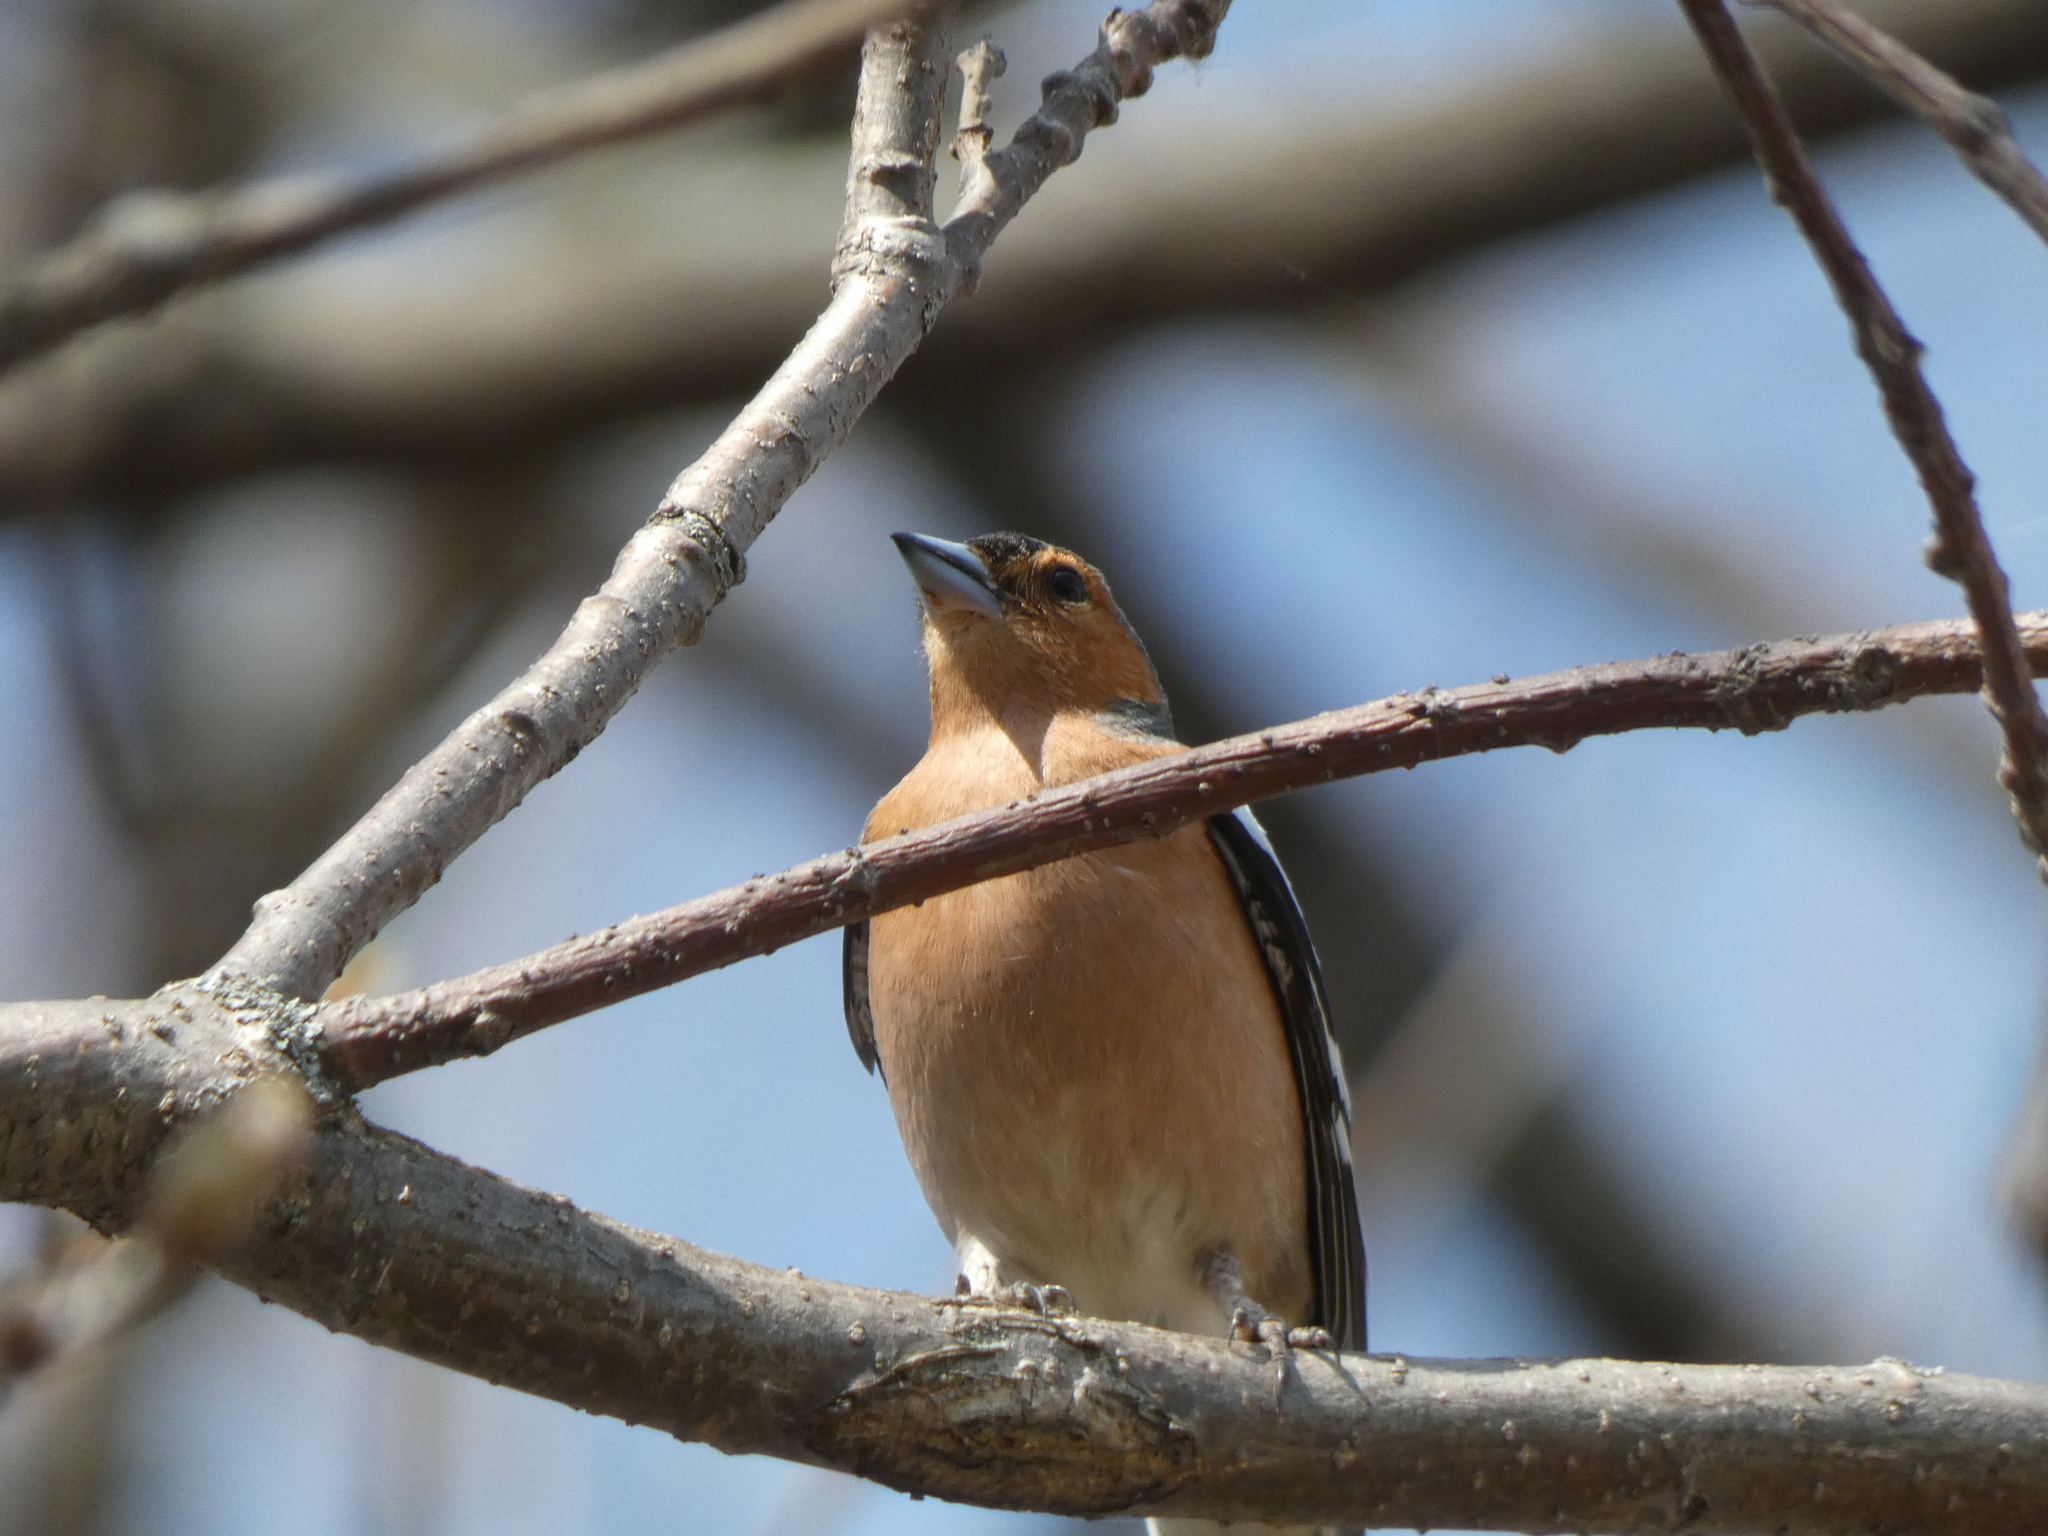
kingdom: Animalia
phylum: Chordata
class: Aves
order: Passeriformes
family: Fringillidae
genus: Fringilla
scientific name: Fringilla coelebs
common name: Common chaffinch
